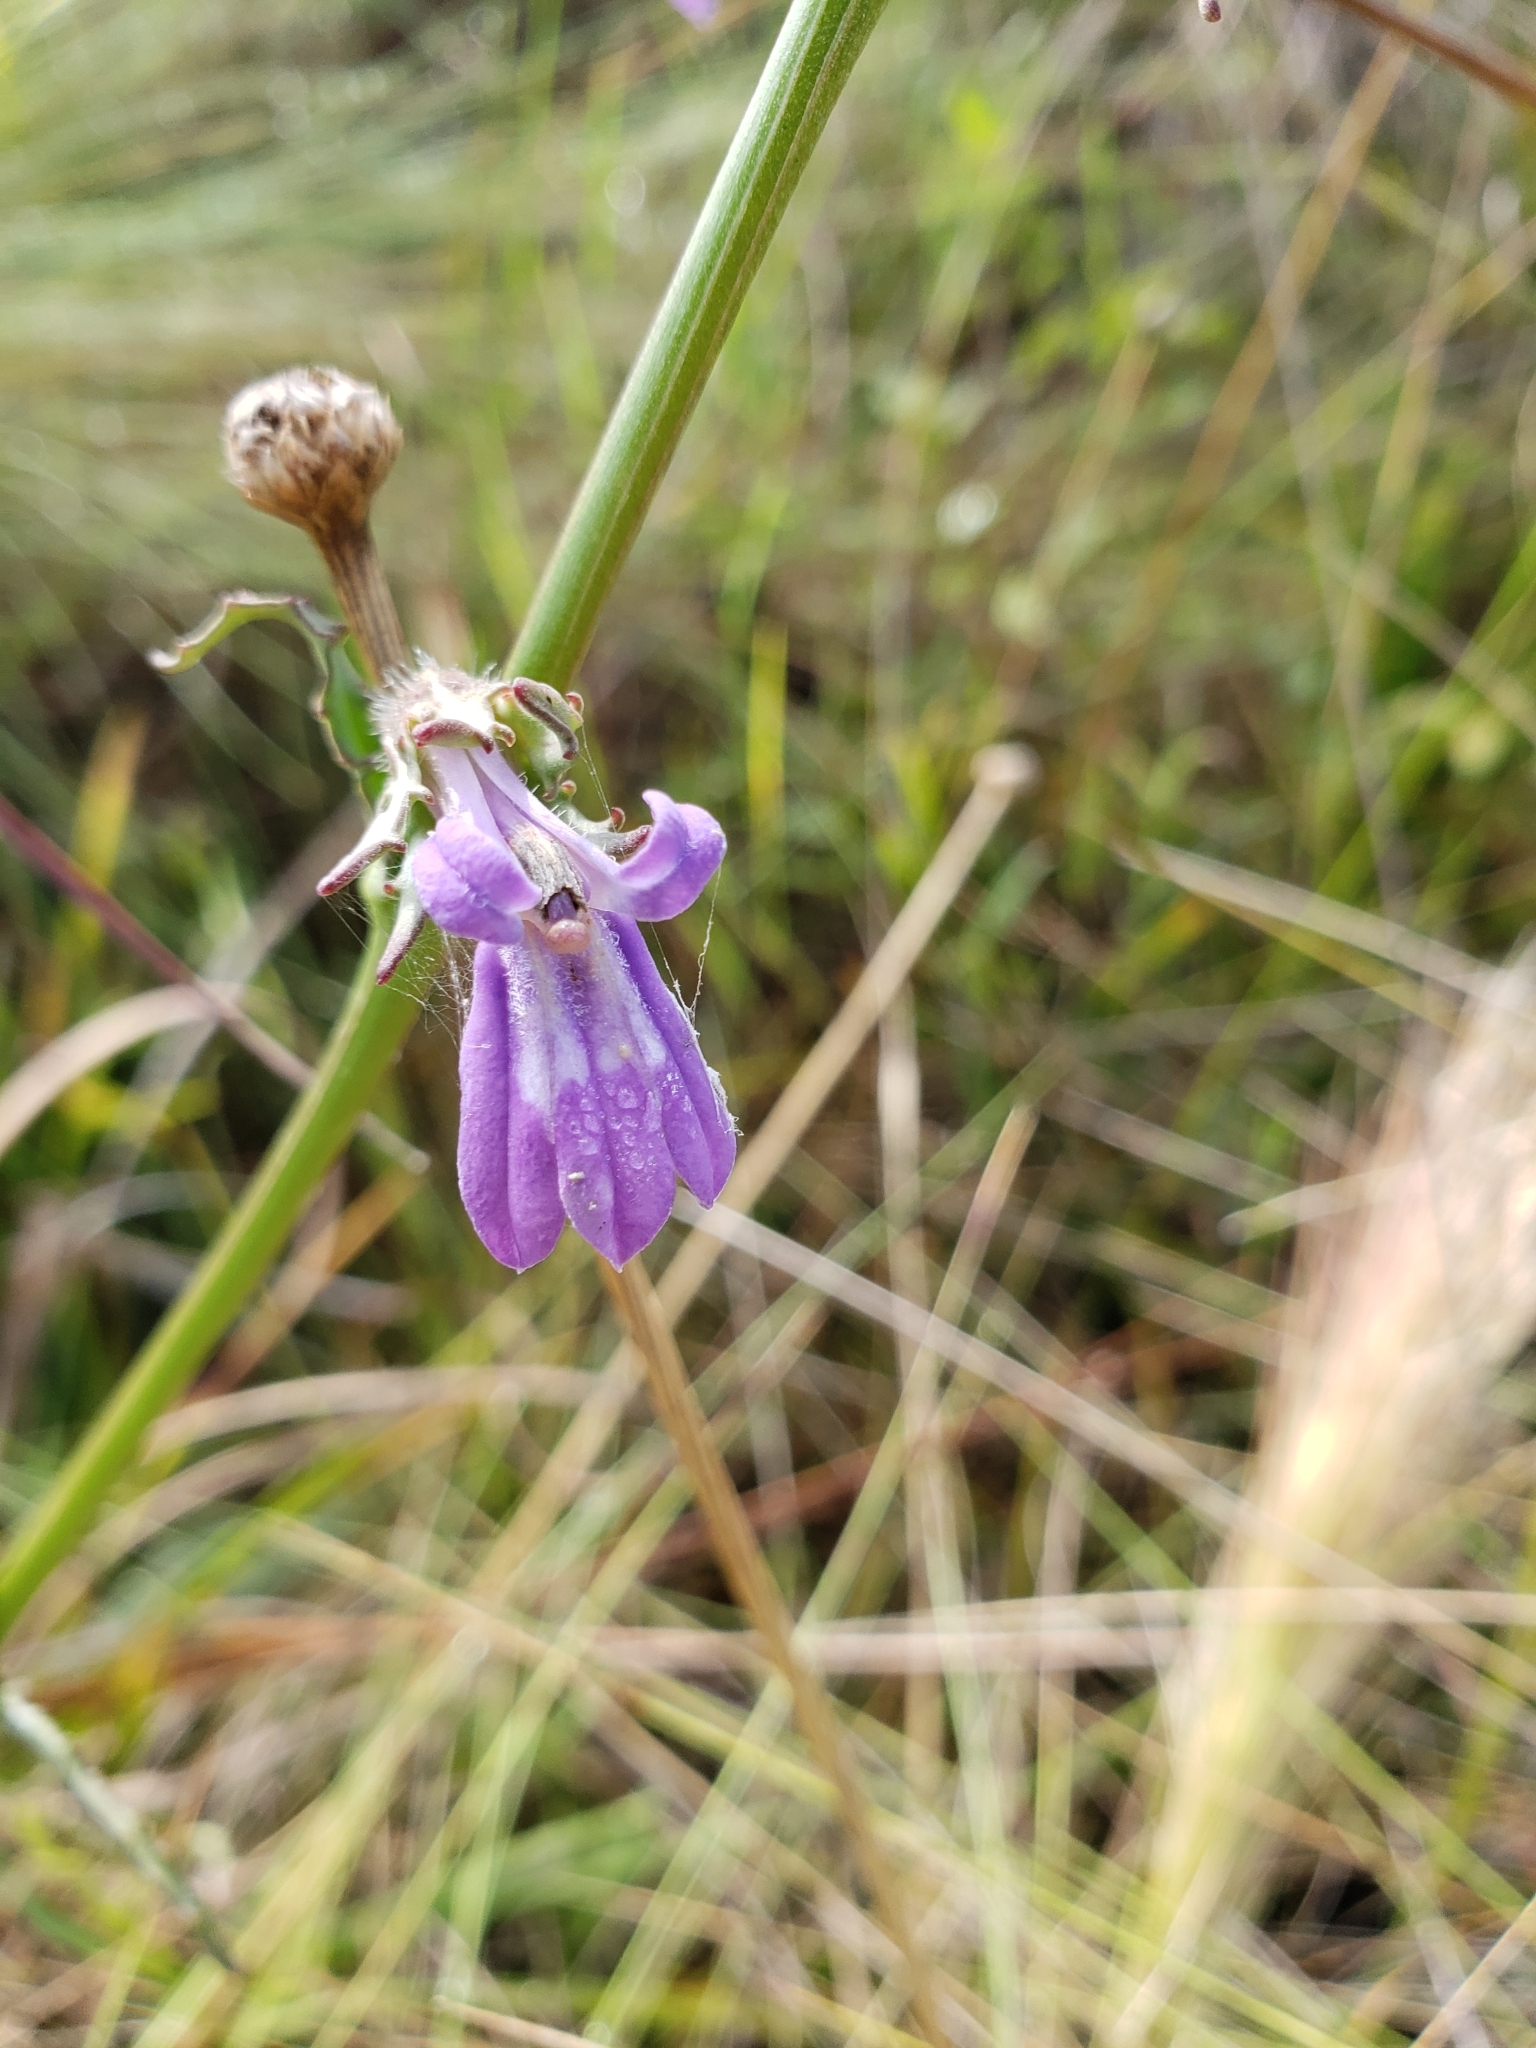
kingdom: Plantae
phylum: Tracheophyta
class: Magnoliopsida
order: Asterales
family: Campanulaceae
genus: Lobelia
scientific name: Lobelia glandulosa
